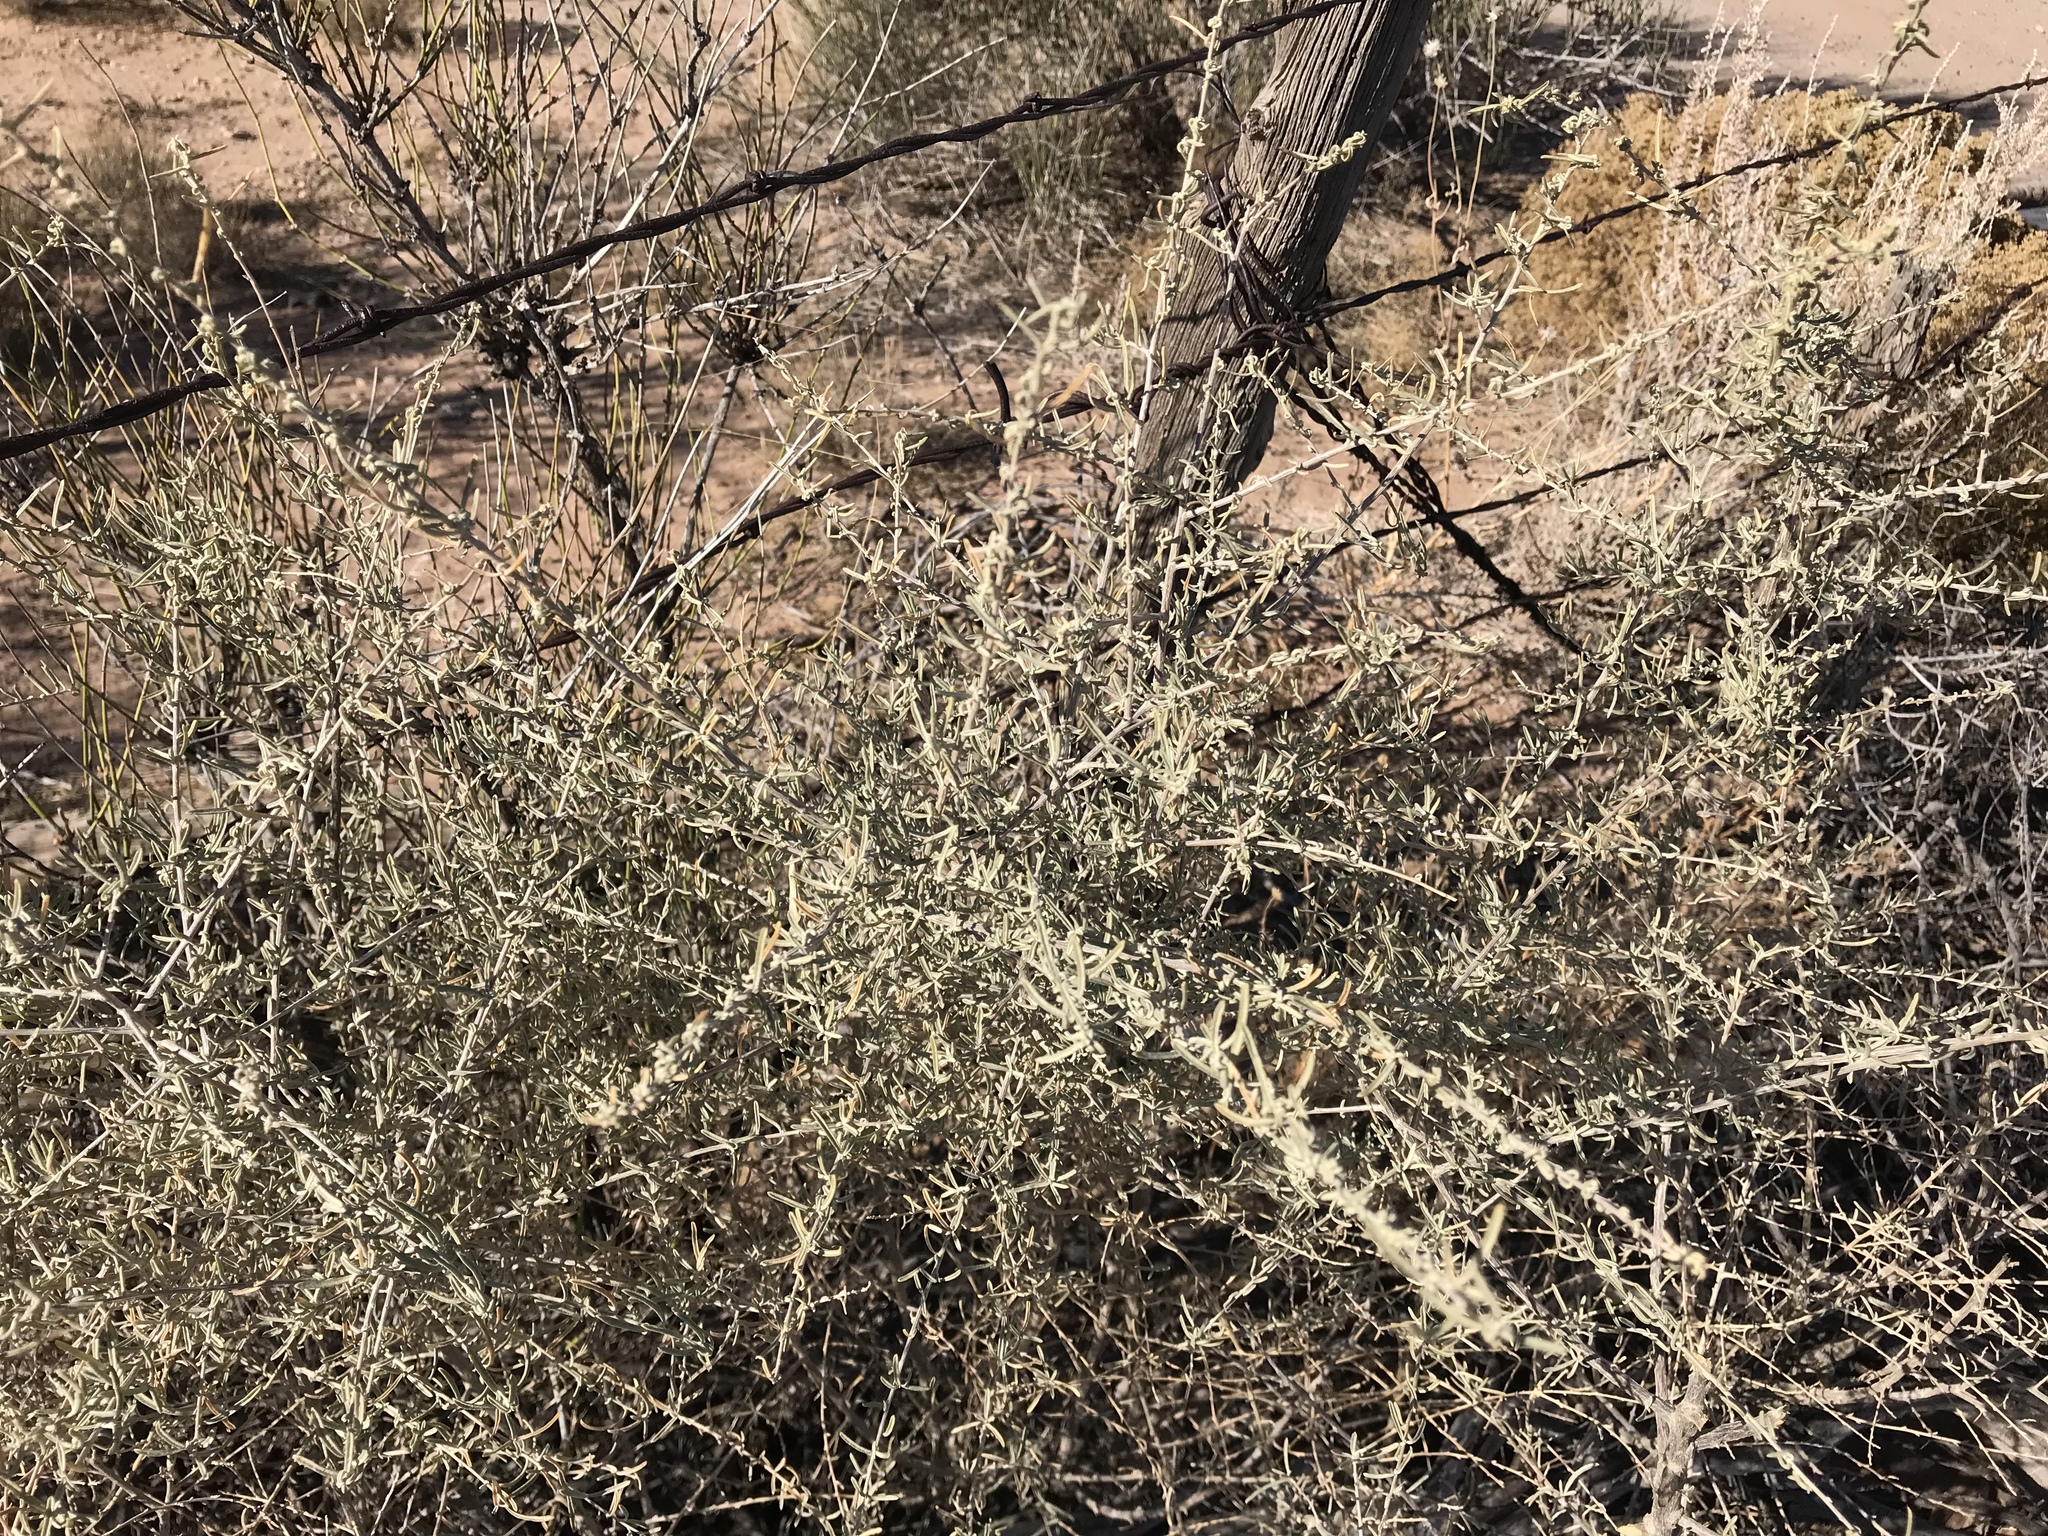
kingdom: Plantae
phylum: Tracheophyta
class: Magnoliopsida
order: Caryophyllales
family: Amaranthaceae
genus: Atriplex
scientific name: Atriplex canescens
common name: Four-wing saltbush
